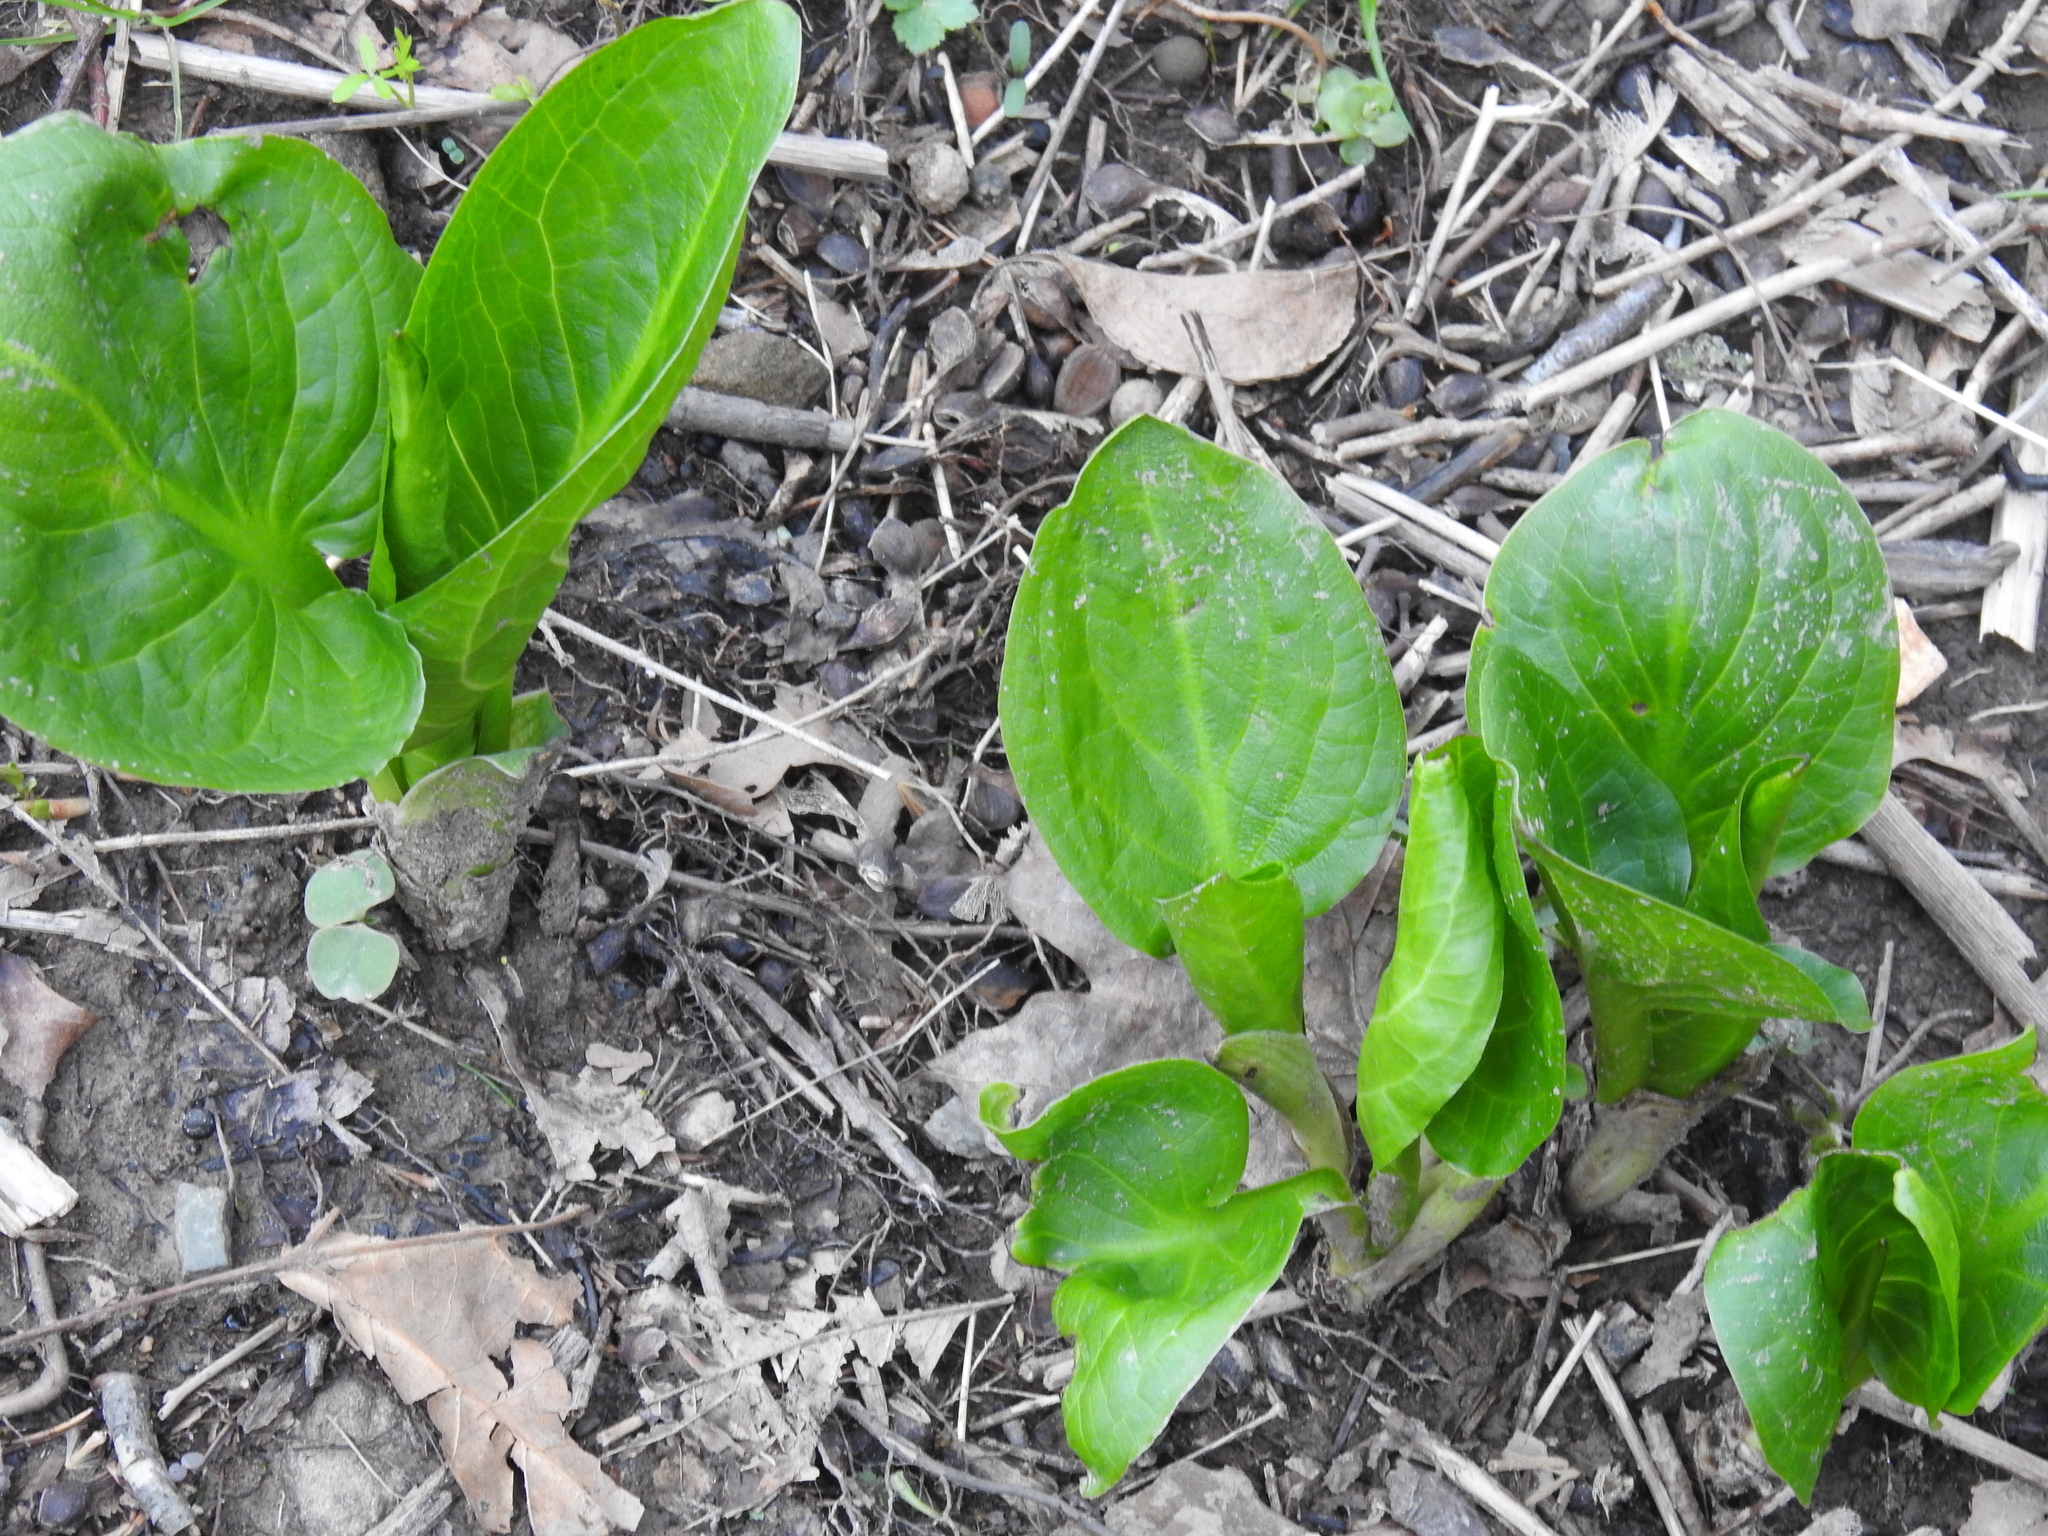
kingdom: Plantae
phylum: Tracheophyta
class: Liliopsida
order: Alismatales
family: Araceae
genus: Symplocarpus
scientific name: Symplocarpus foetidus
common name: Eastern skunk cabbage
